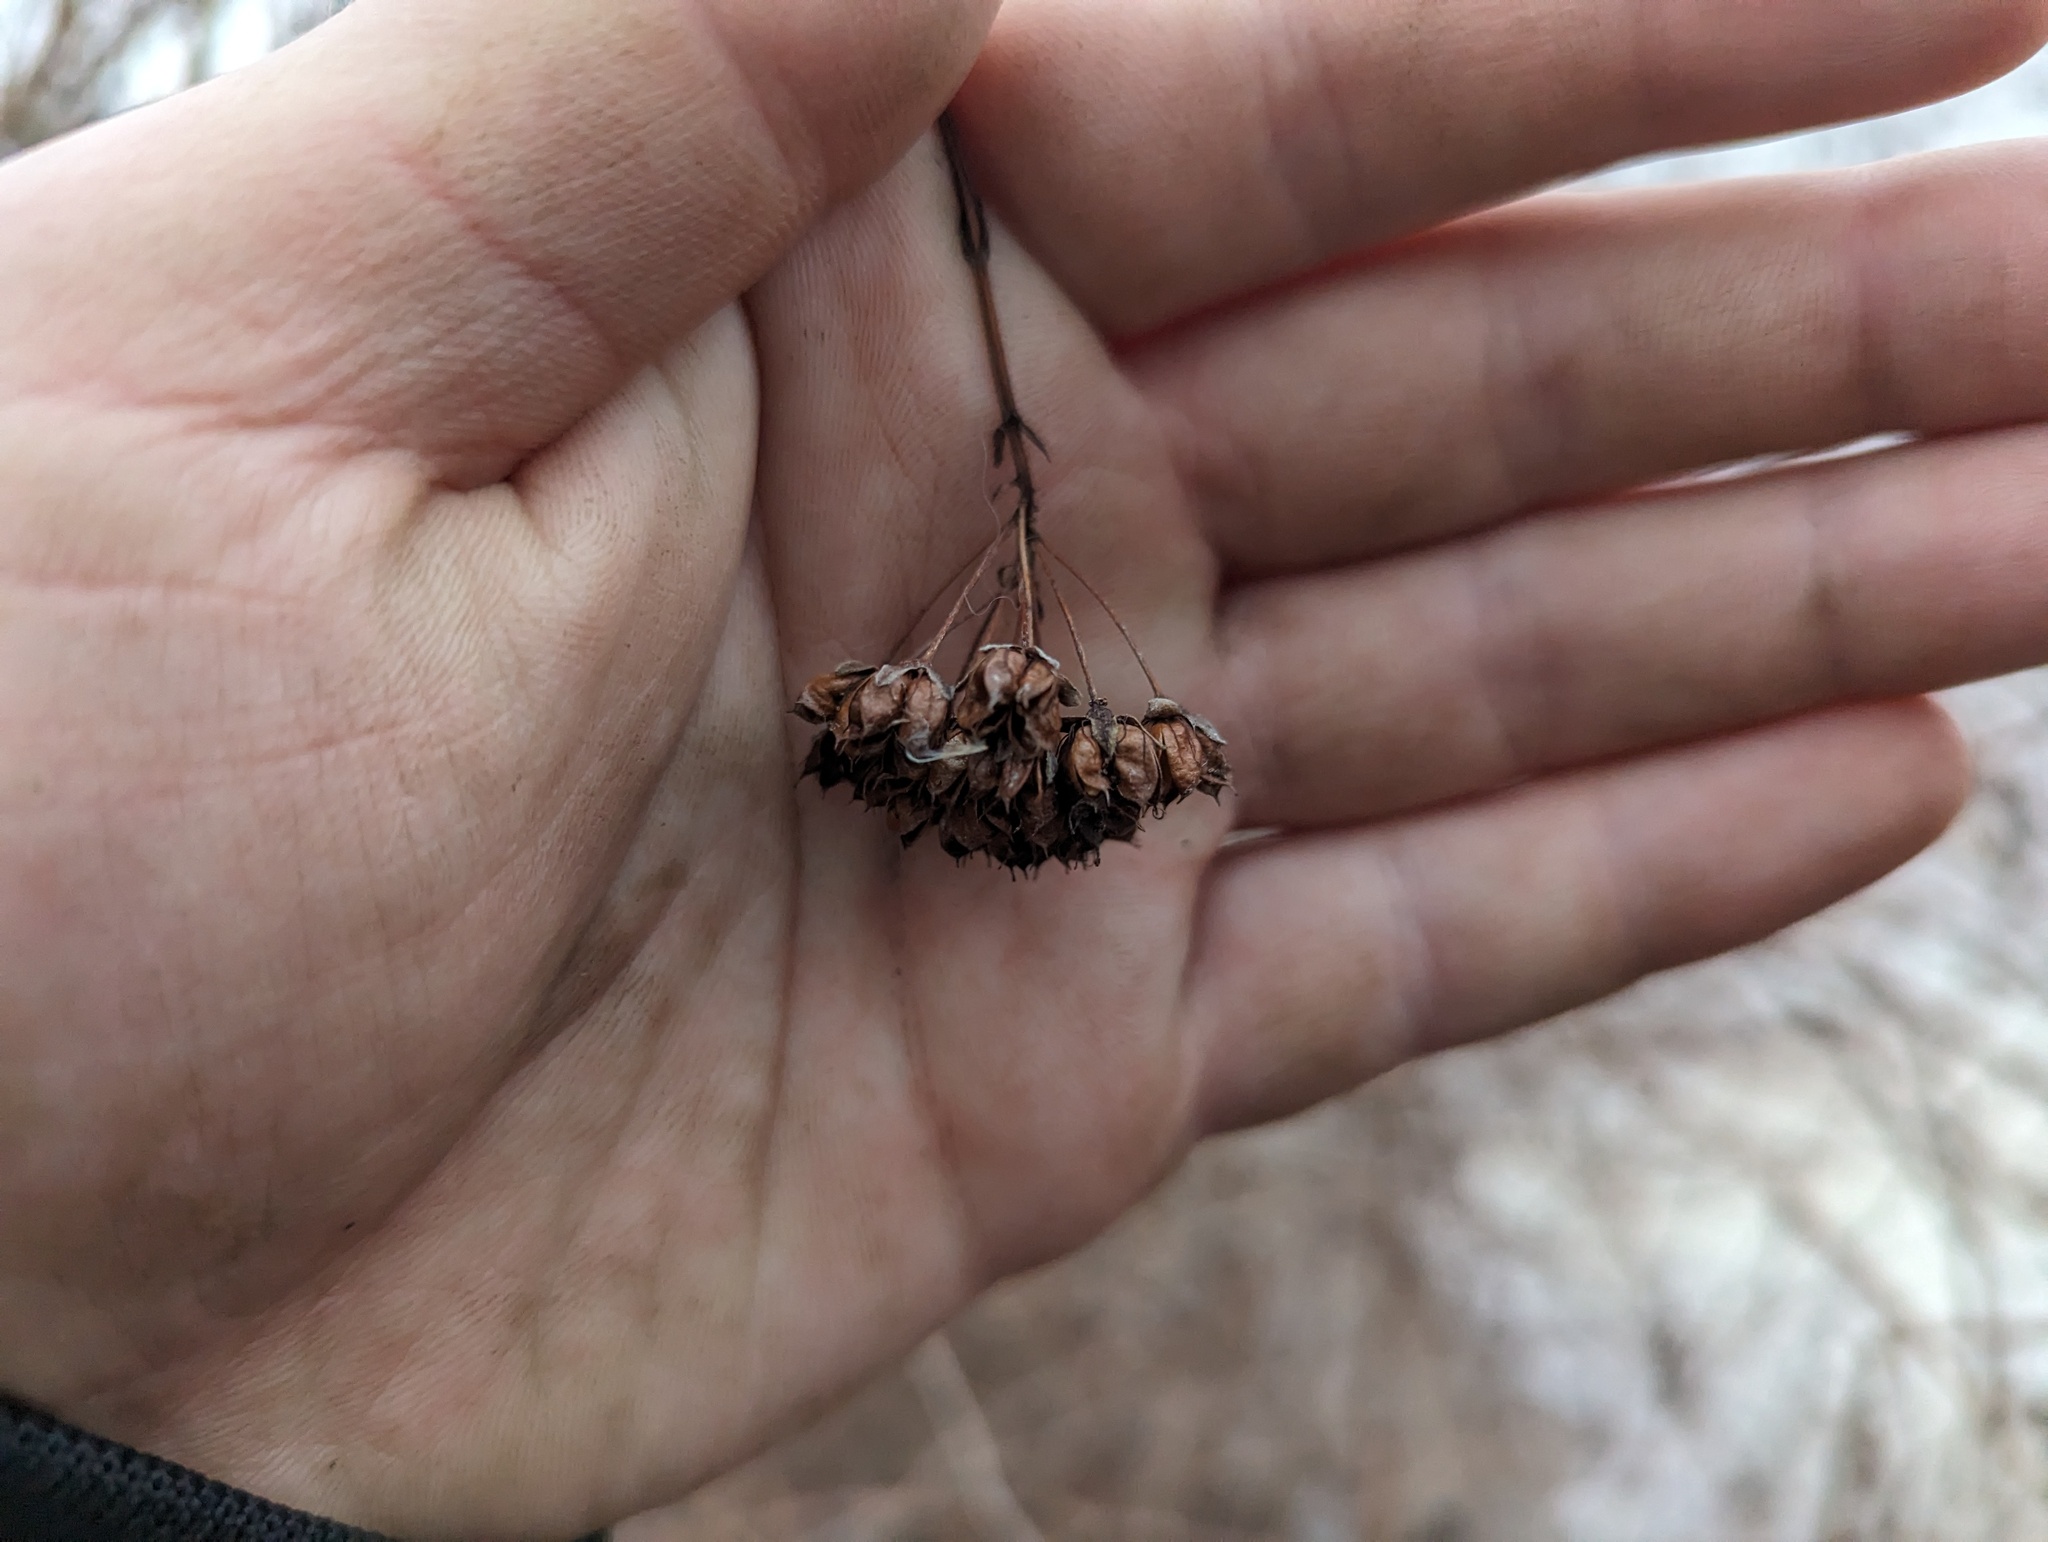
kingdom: Plantae
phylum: Tracheophyta
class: Magnoliopsida
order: Rosales
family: Rosaceae
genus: Physocarpus
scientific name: Physocarpus opulifolius
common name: Ninebark
